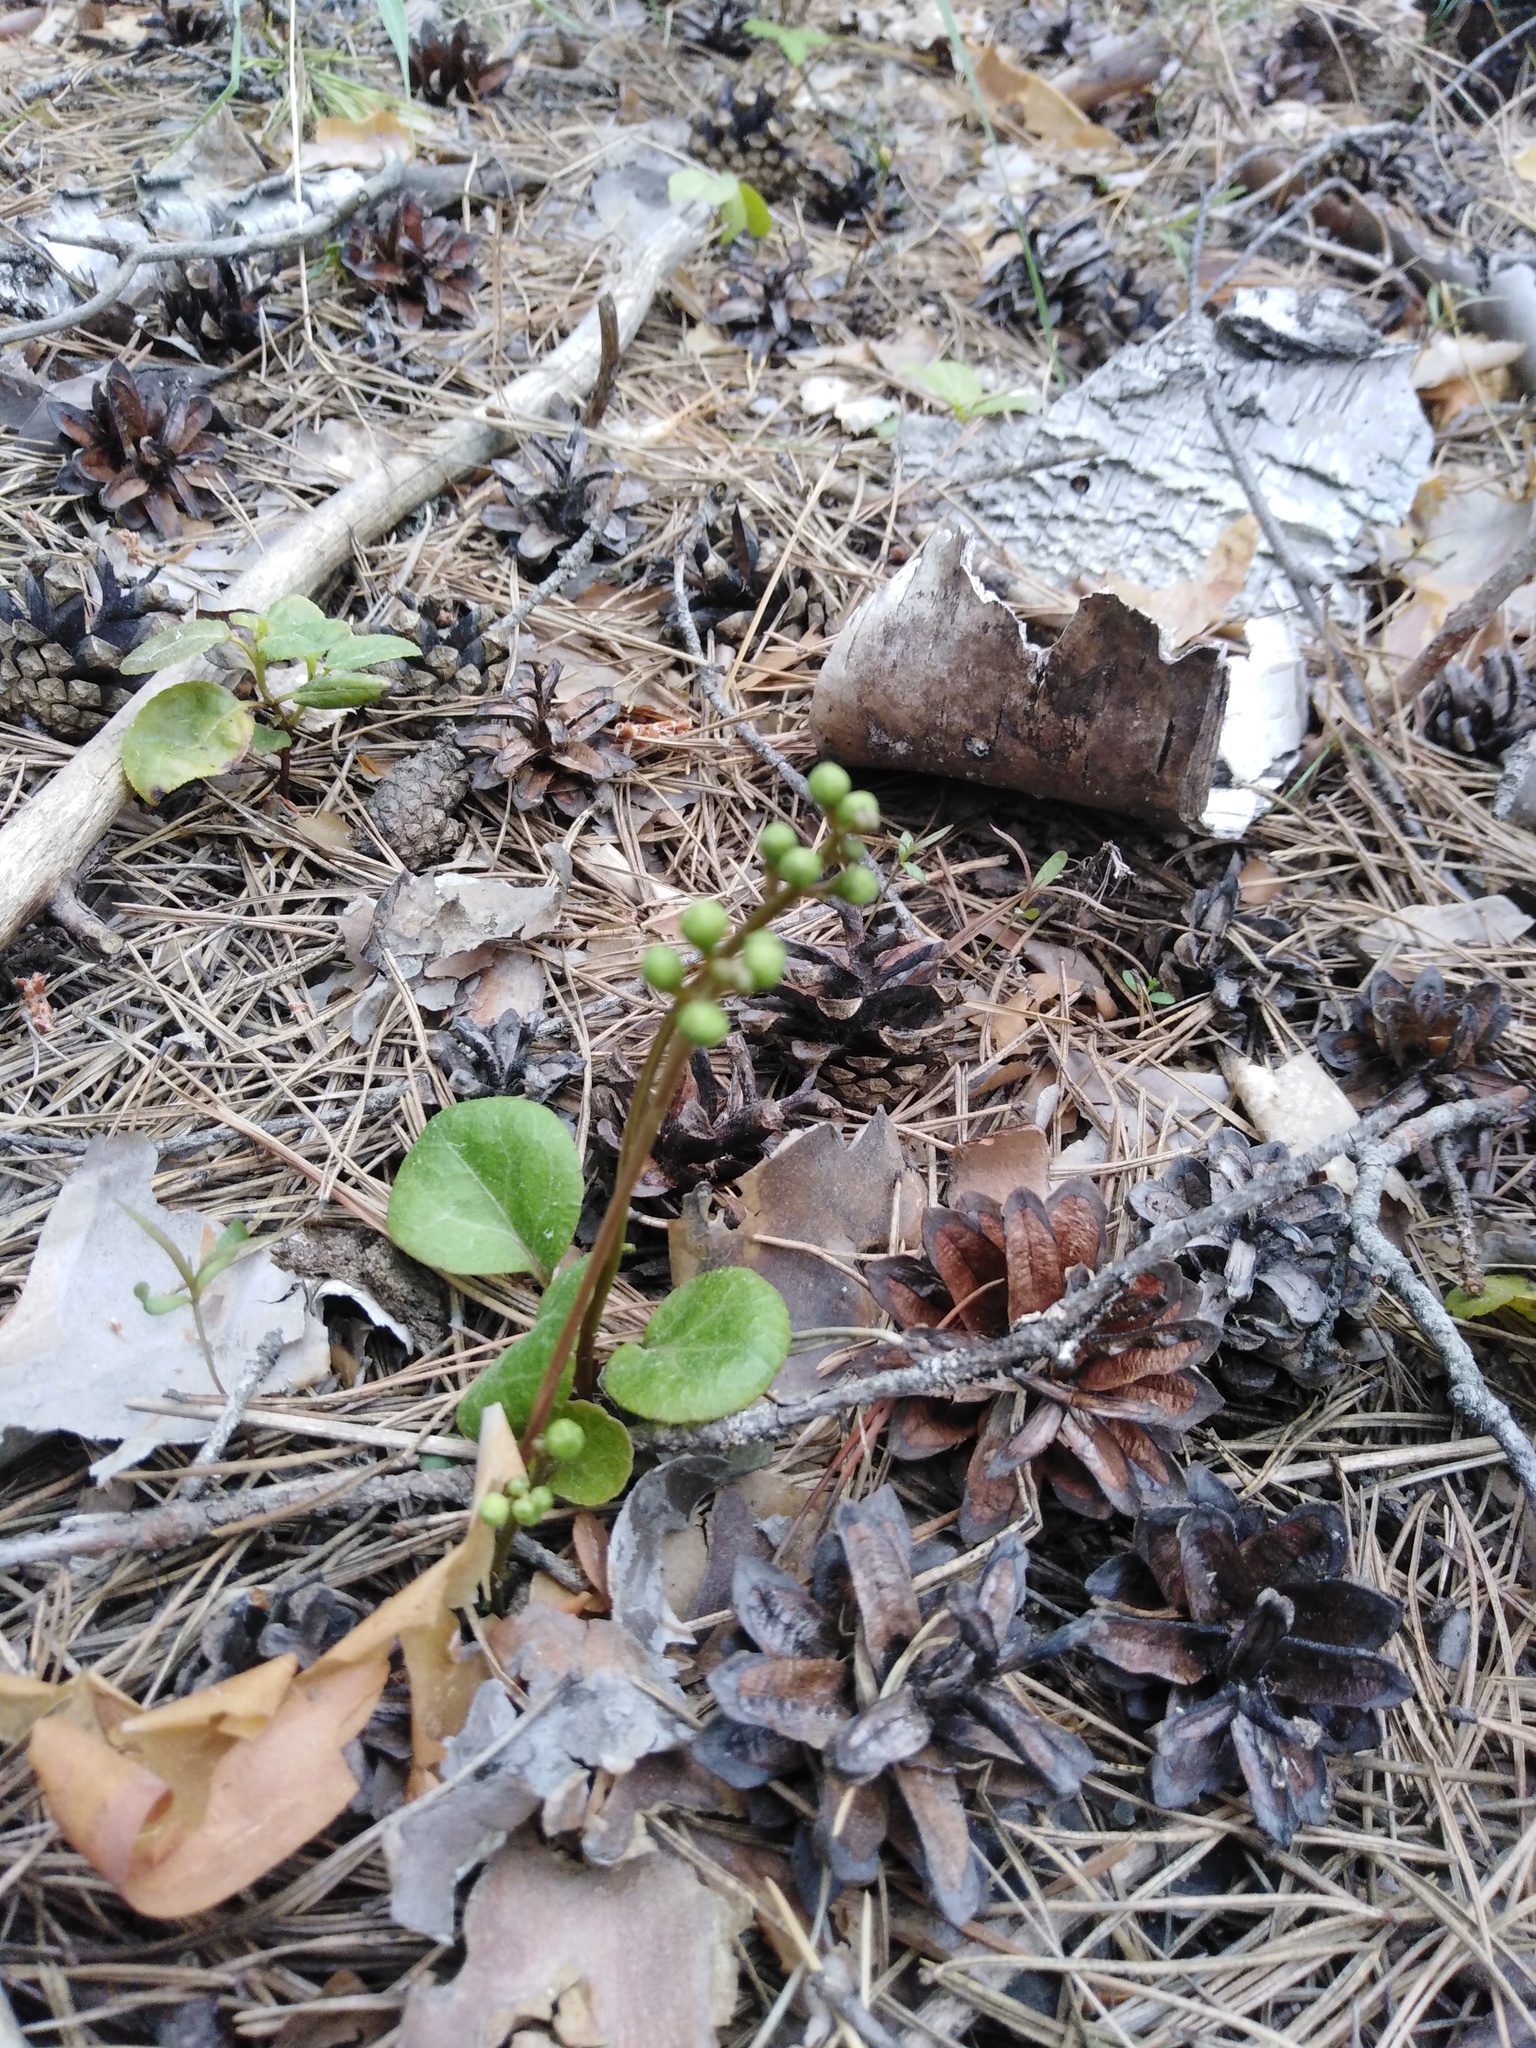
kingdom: Plantae
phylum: Tracheophyta
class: Magnoliopsida
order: Ericales
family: Ericaceae
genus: Pyrola
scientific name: Pyrola chlorantha
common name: Green wintergreen
